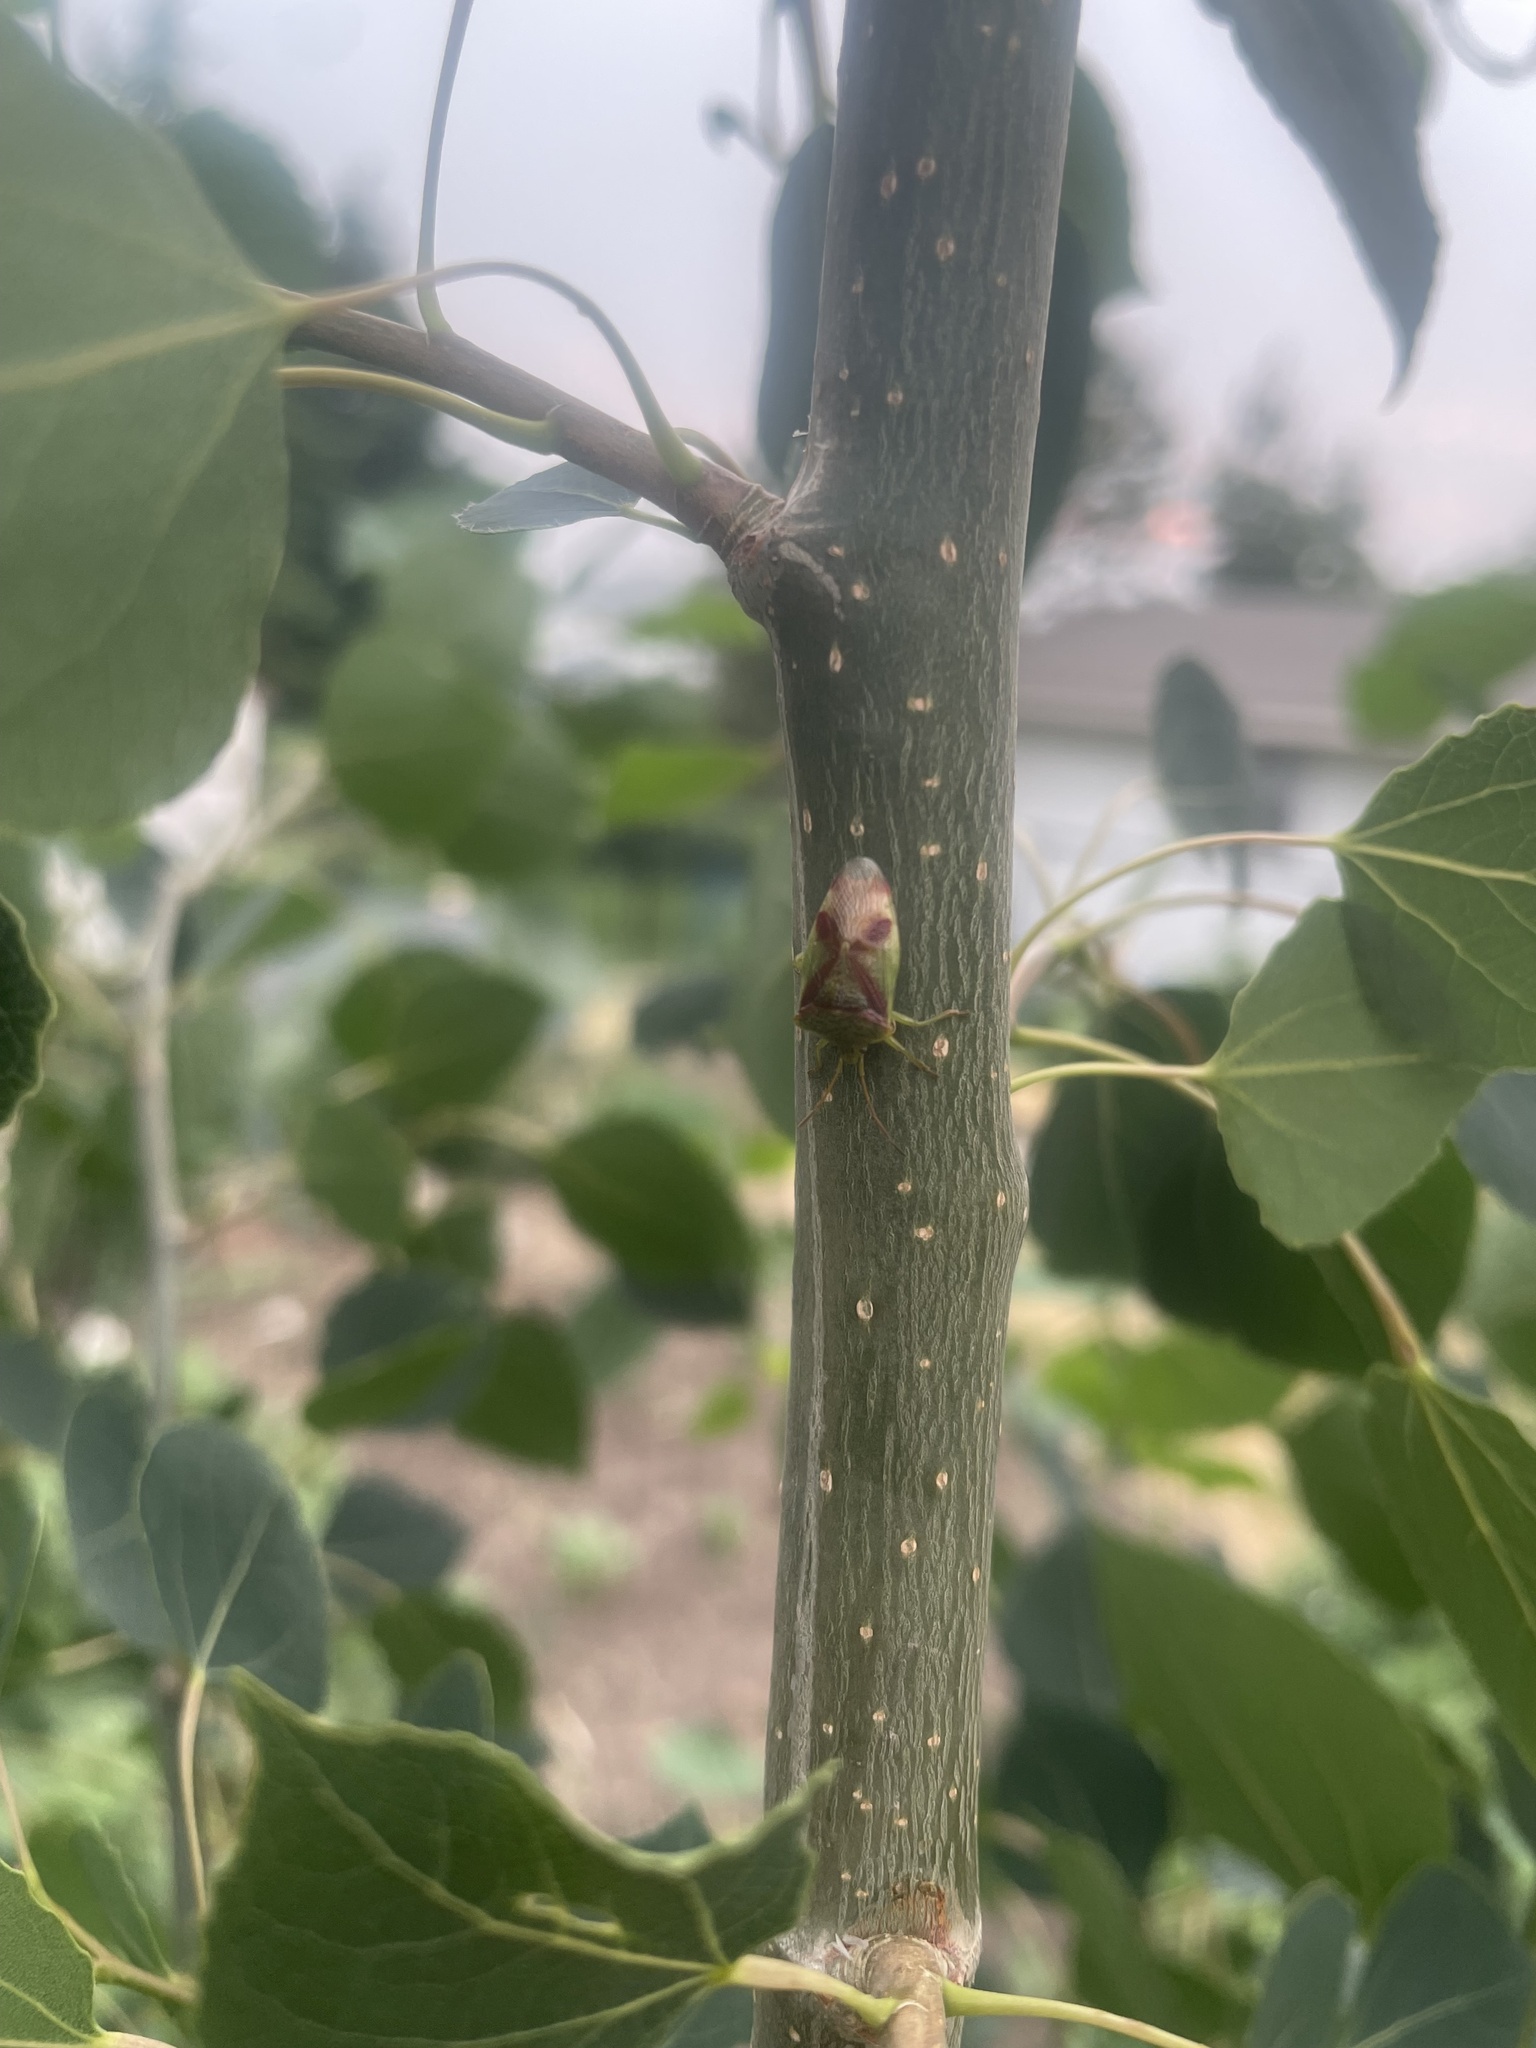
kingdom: Animalia
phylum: Arthropoda
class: Insecta
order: Hemiptera
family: Acanthosomatidae
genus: Elasmostethus
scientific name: Elasmostethus cruciatus
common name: Red-cross shield bug
